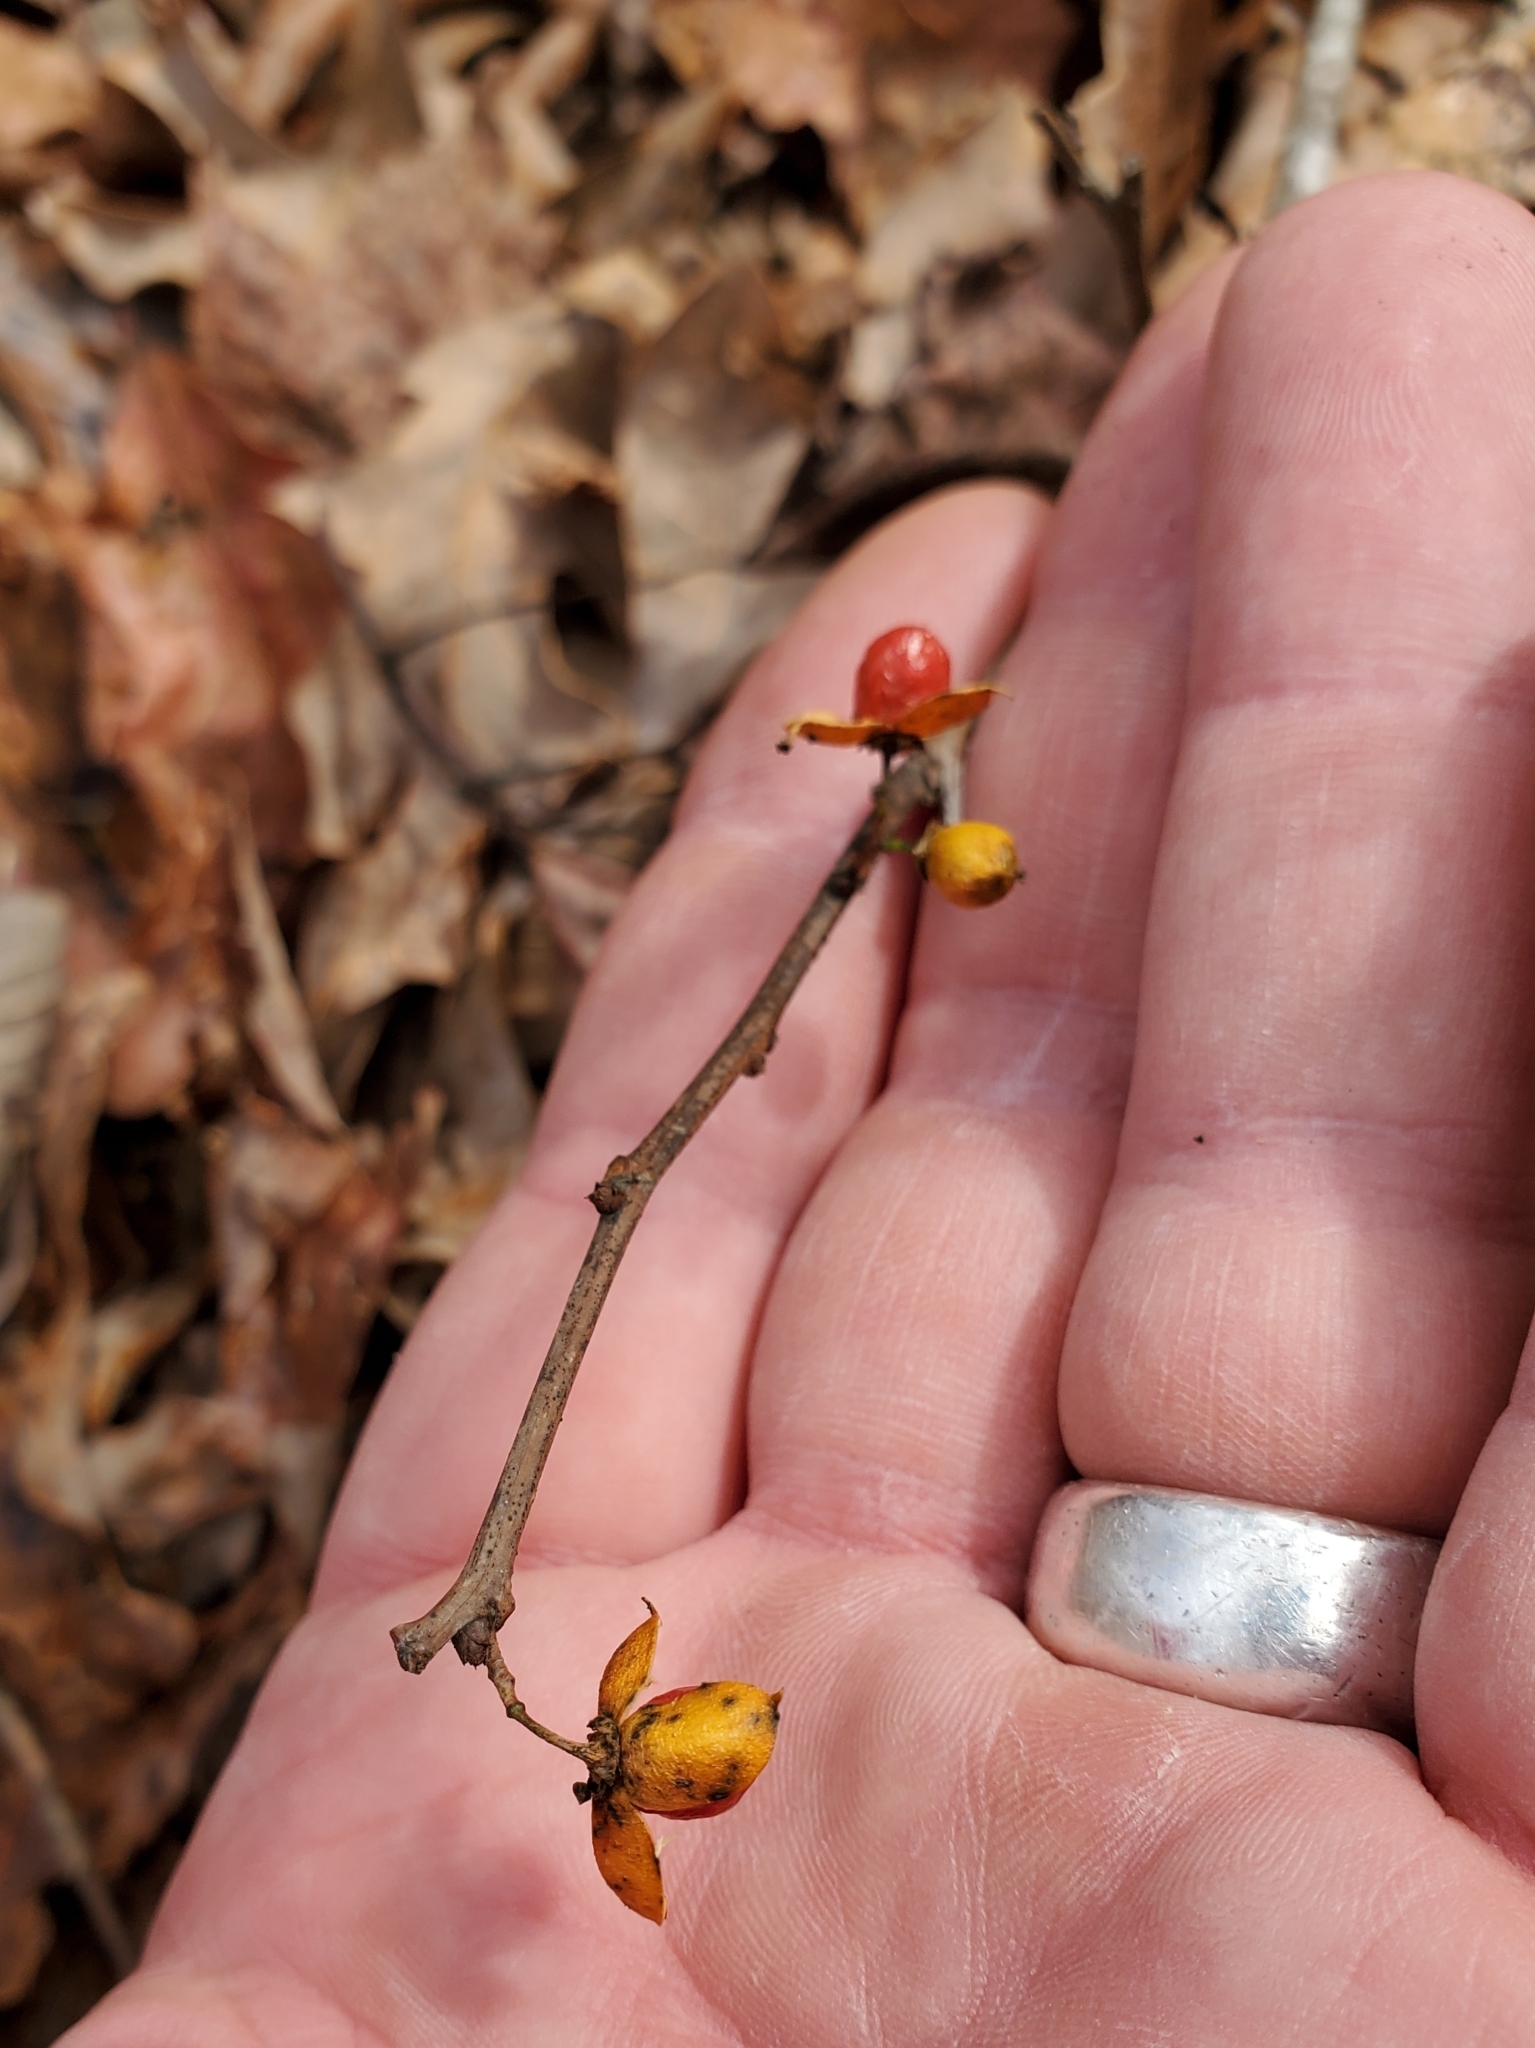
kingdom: Plantae
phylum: Tracheophyta
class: Magnoliopsida
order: Celastrales
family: Celastraceae
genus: Celastrus
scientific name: Celastrus orbiculatus
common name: Oriental bittersweet
